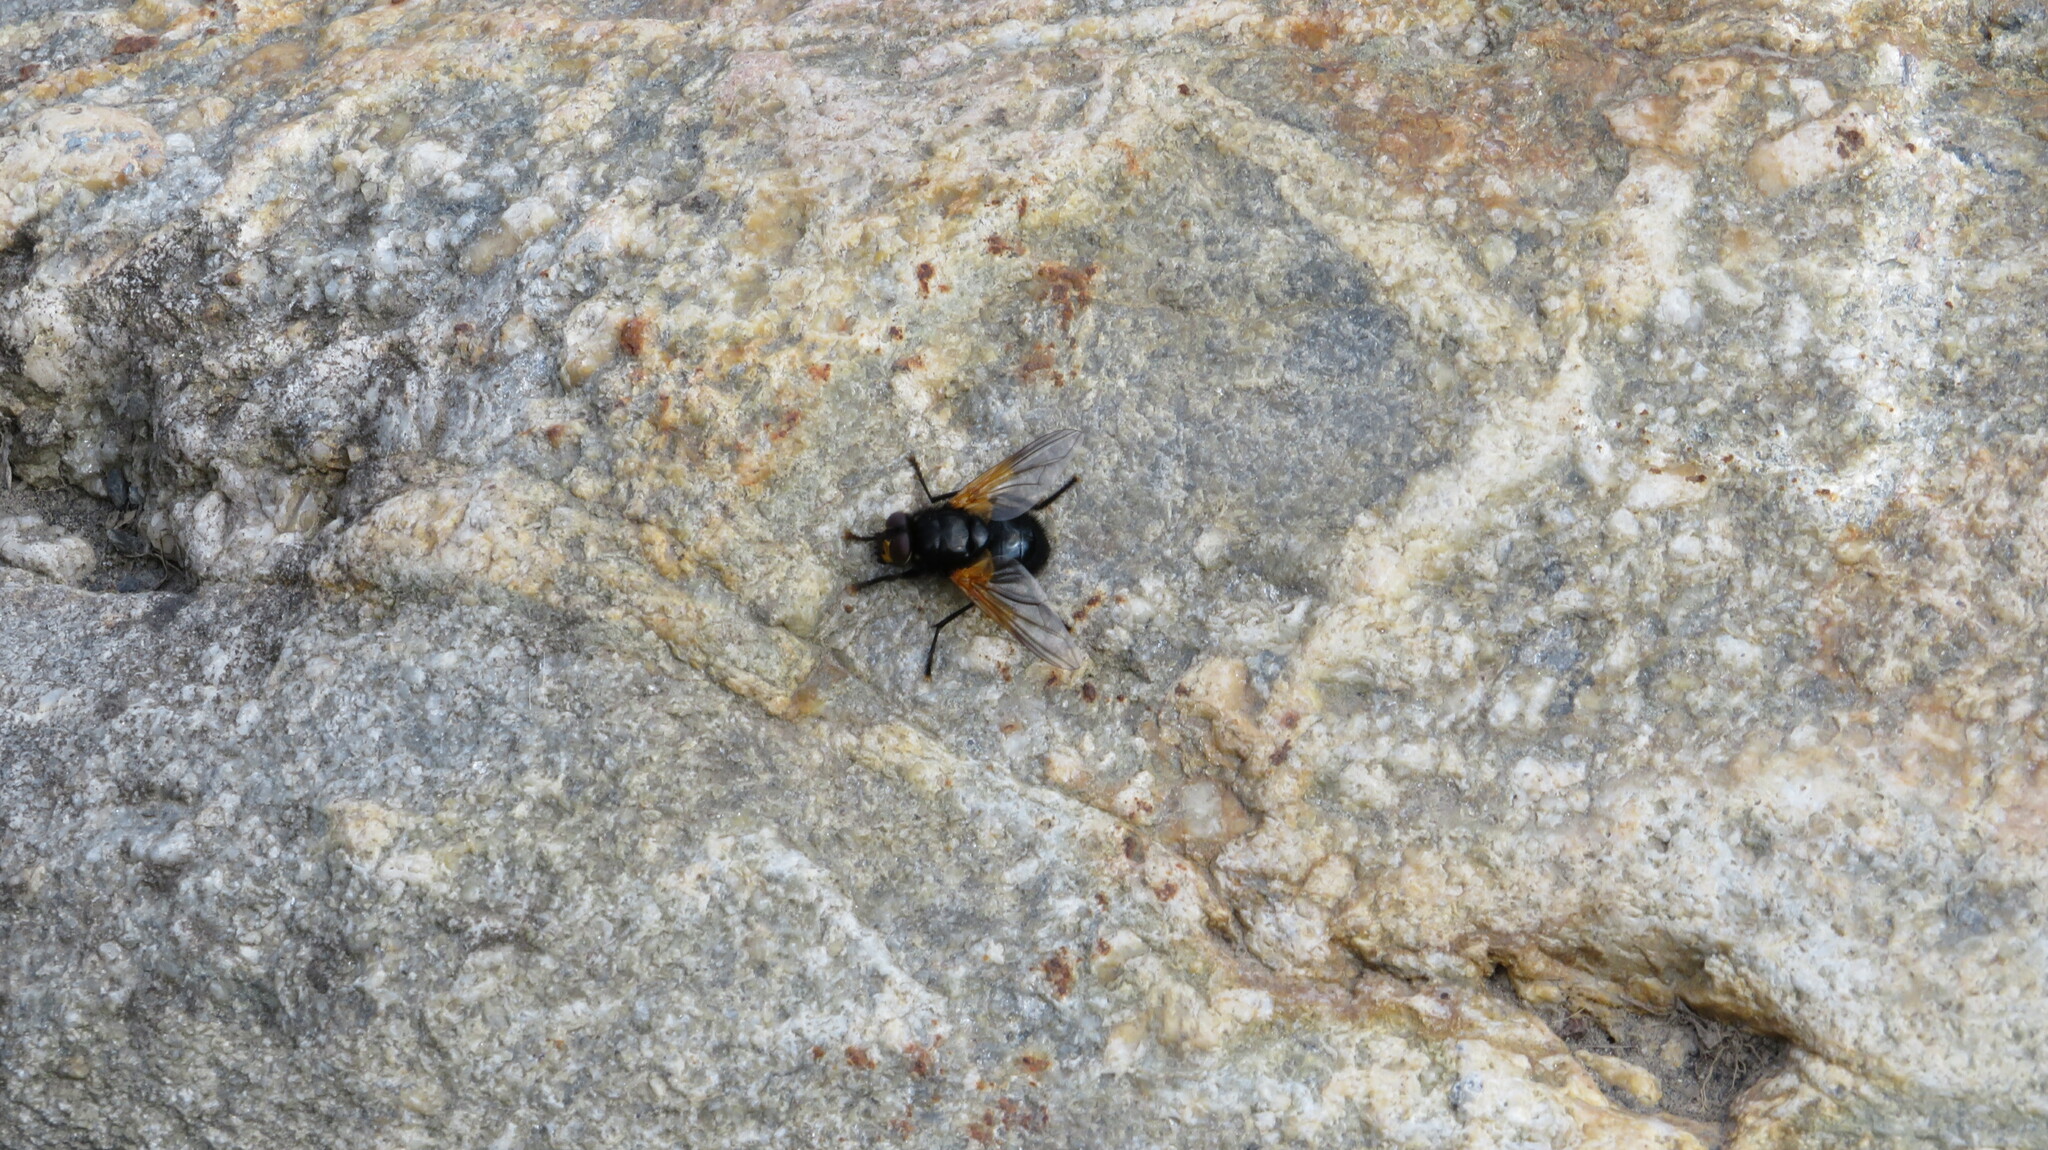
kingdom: Animalia
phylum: Arthropoda
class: Insecta
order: Diptera
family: Muscidae
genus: Mesembrina
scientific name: Mesembrina meridiana
